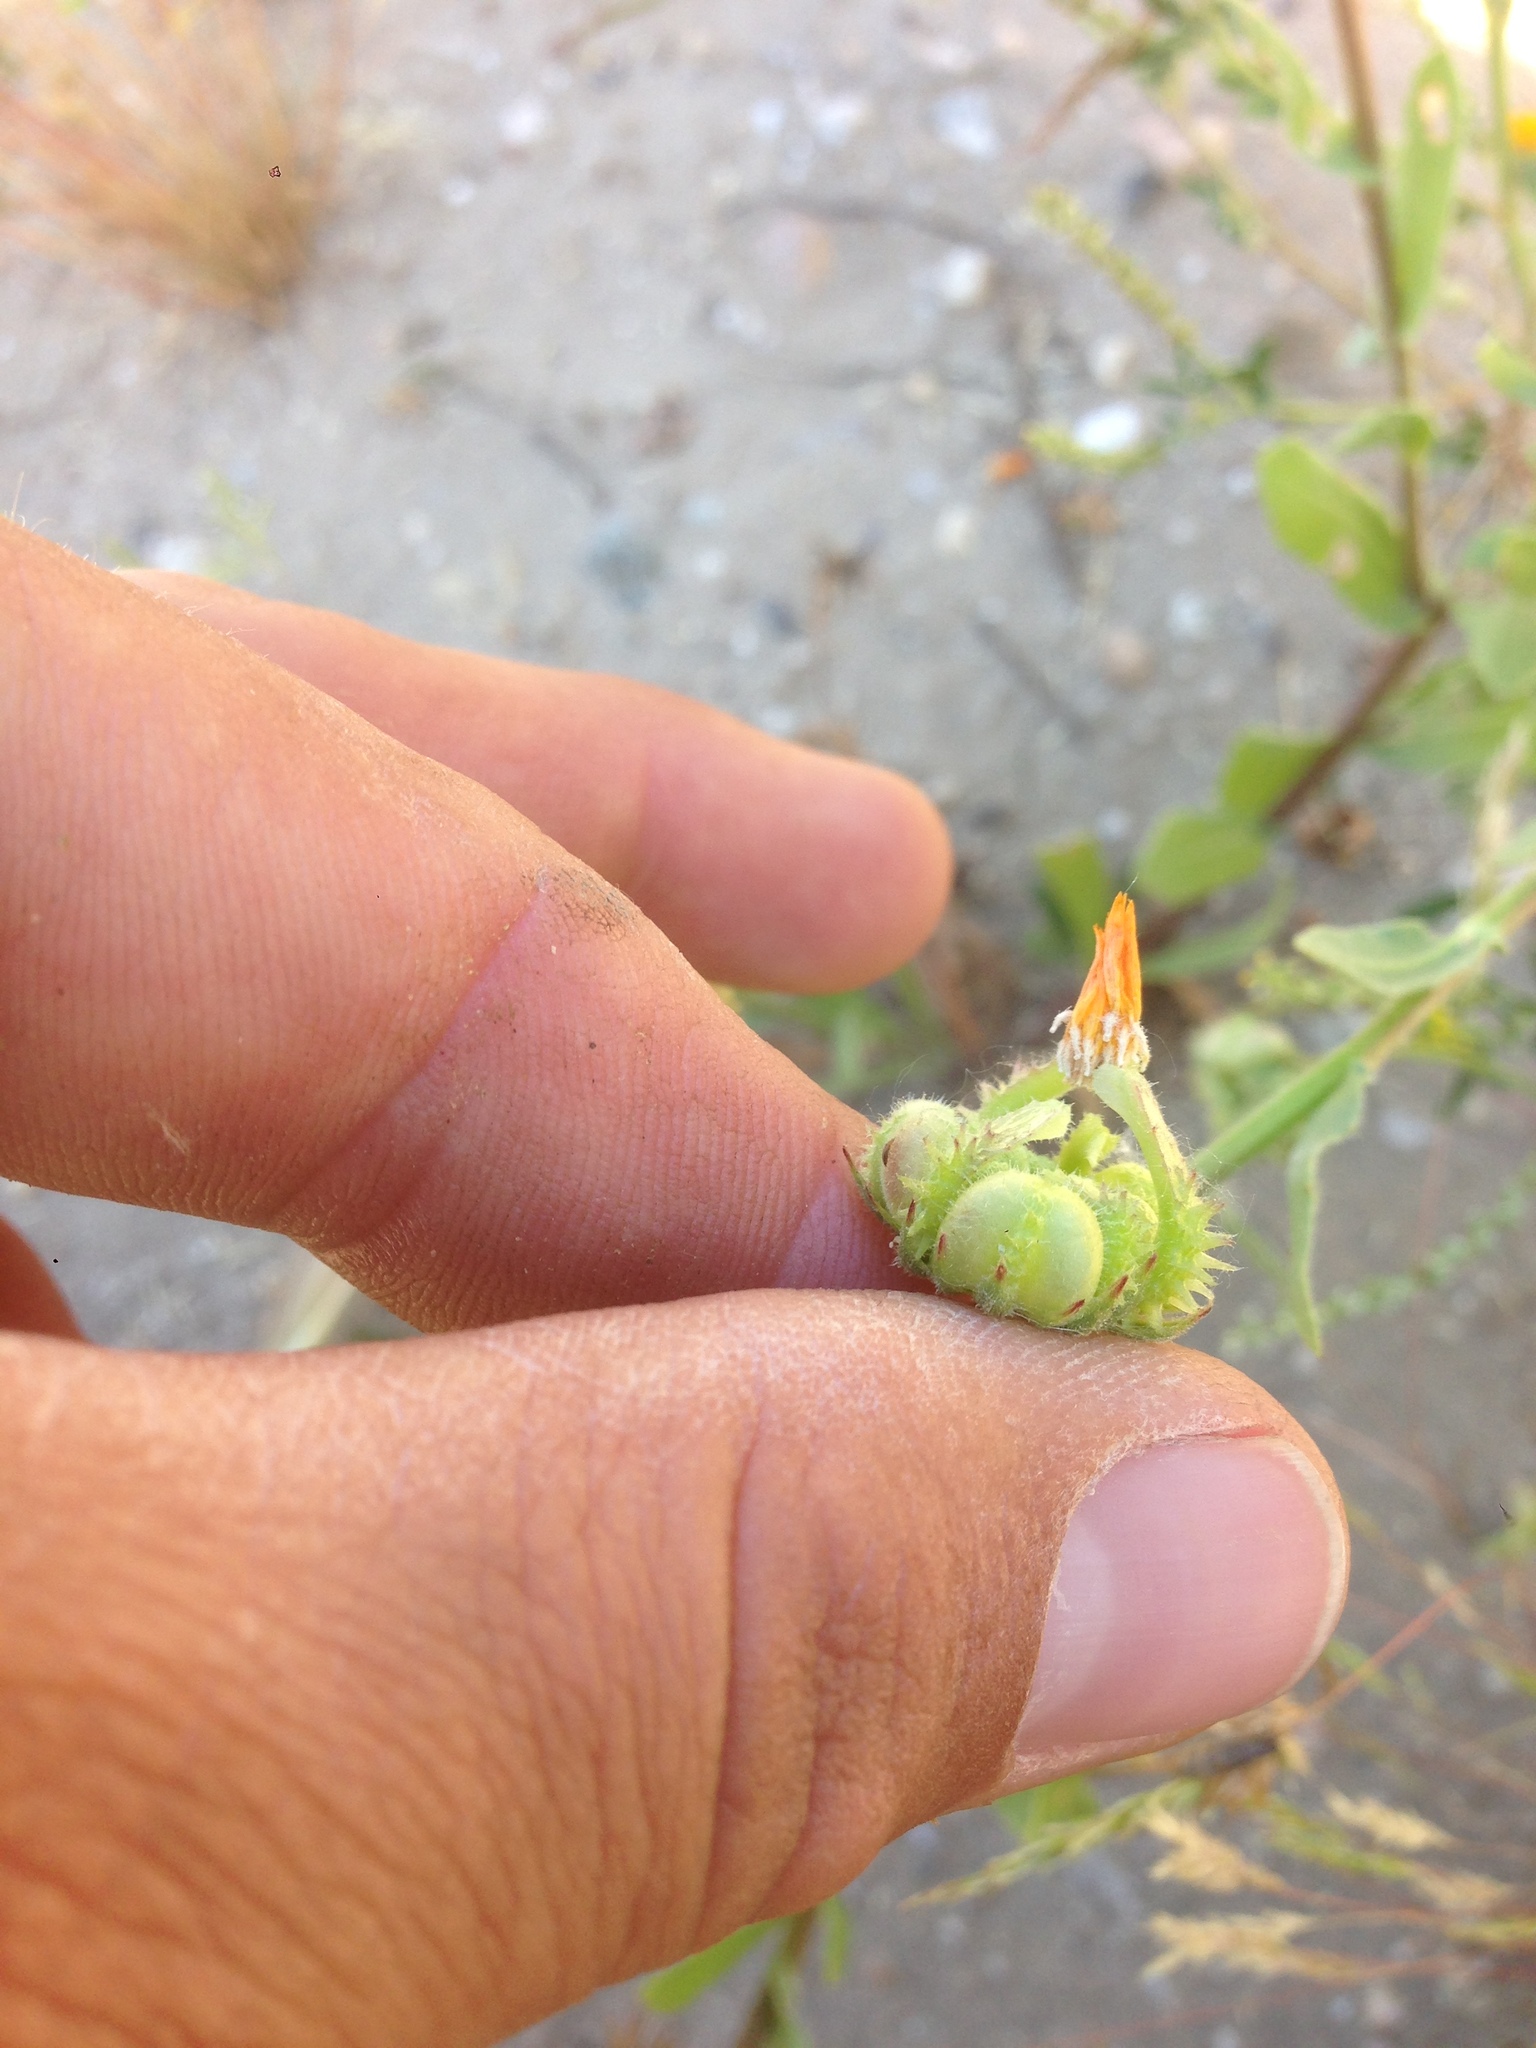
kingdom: Plantae
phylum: Tracheophyta
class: Magnoliopsida
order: Asterales
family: Asteraceae
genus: Calendula
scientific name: Calendula arvensis
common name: Field marigold
